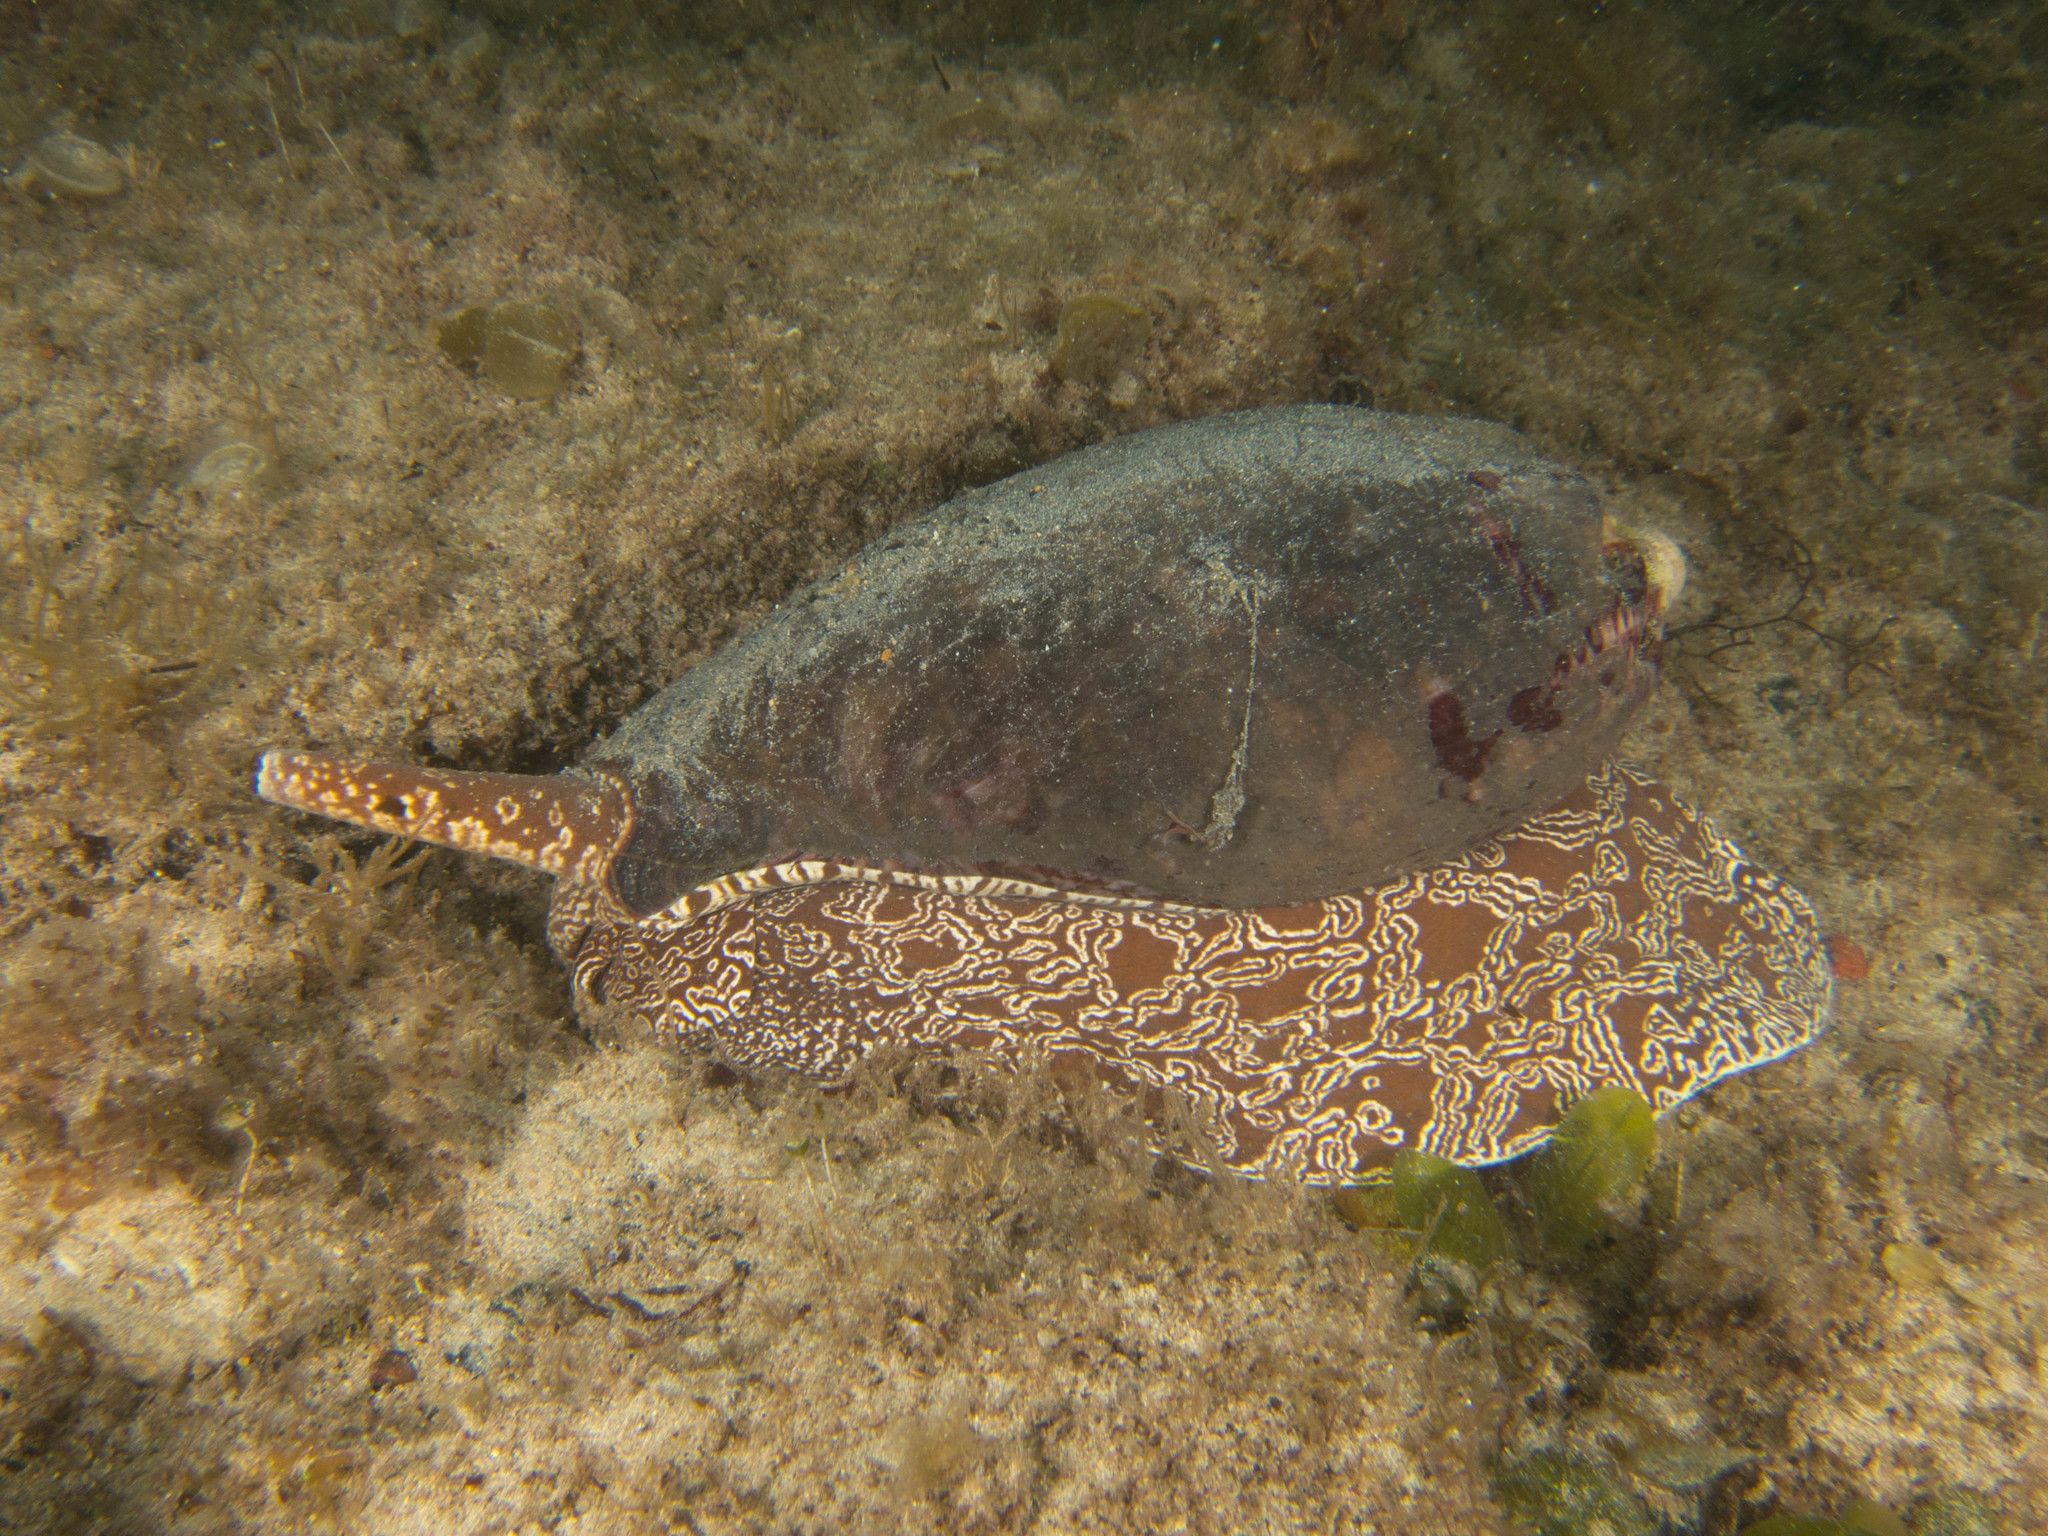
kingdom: Animalia
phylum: Mollusca
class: Gastropoda
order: Neogastropoda
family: Volutidae
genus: Melo
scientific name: Melo miltonis
